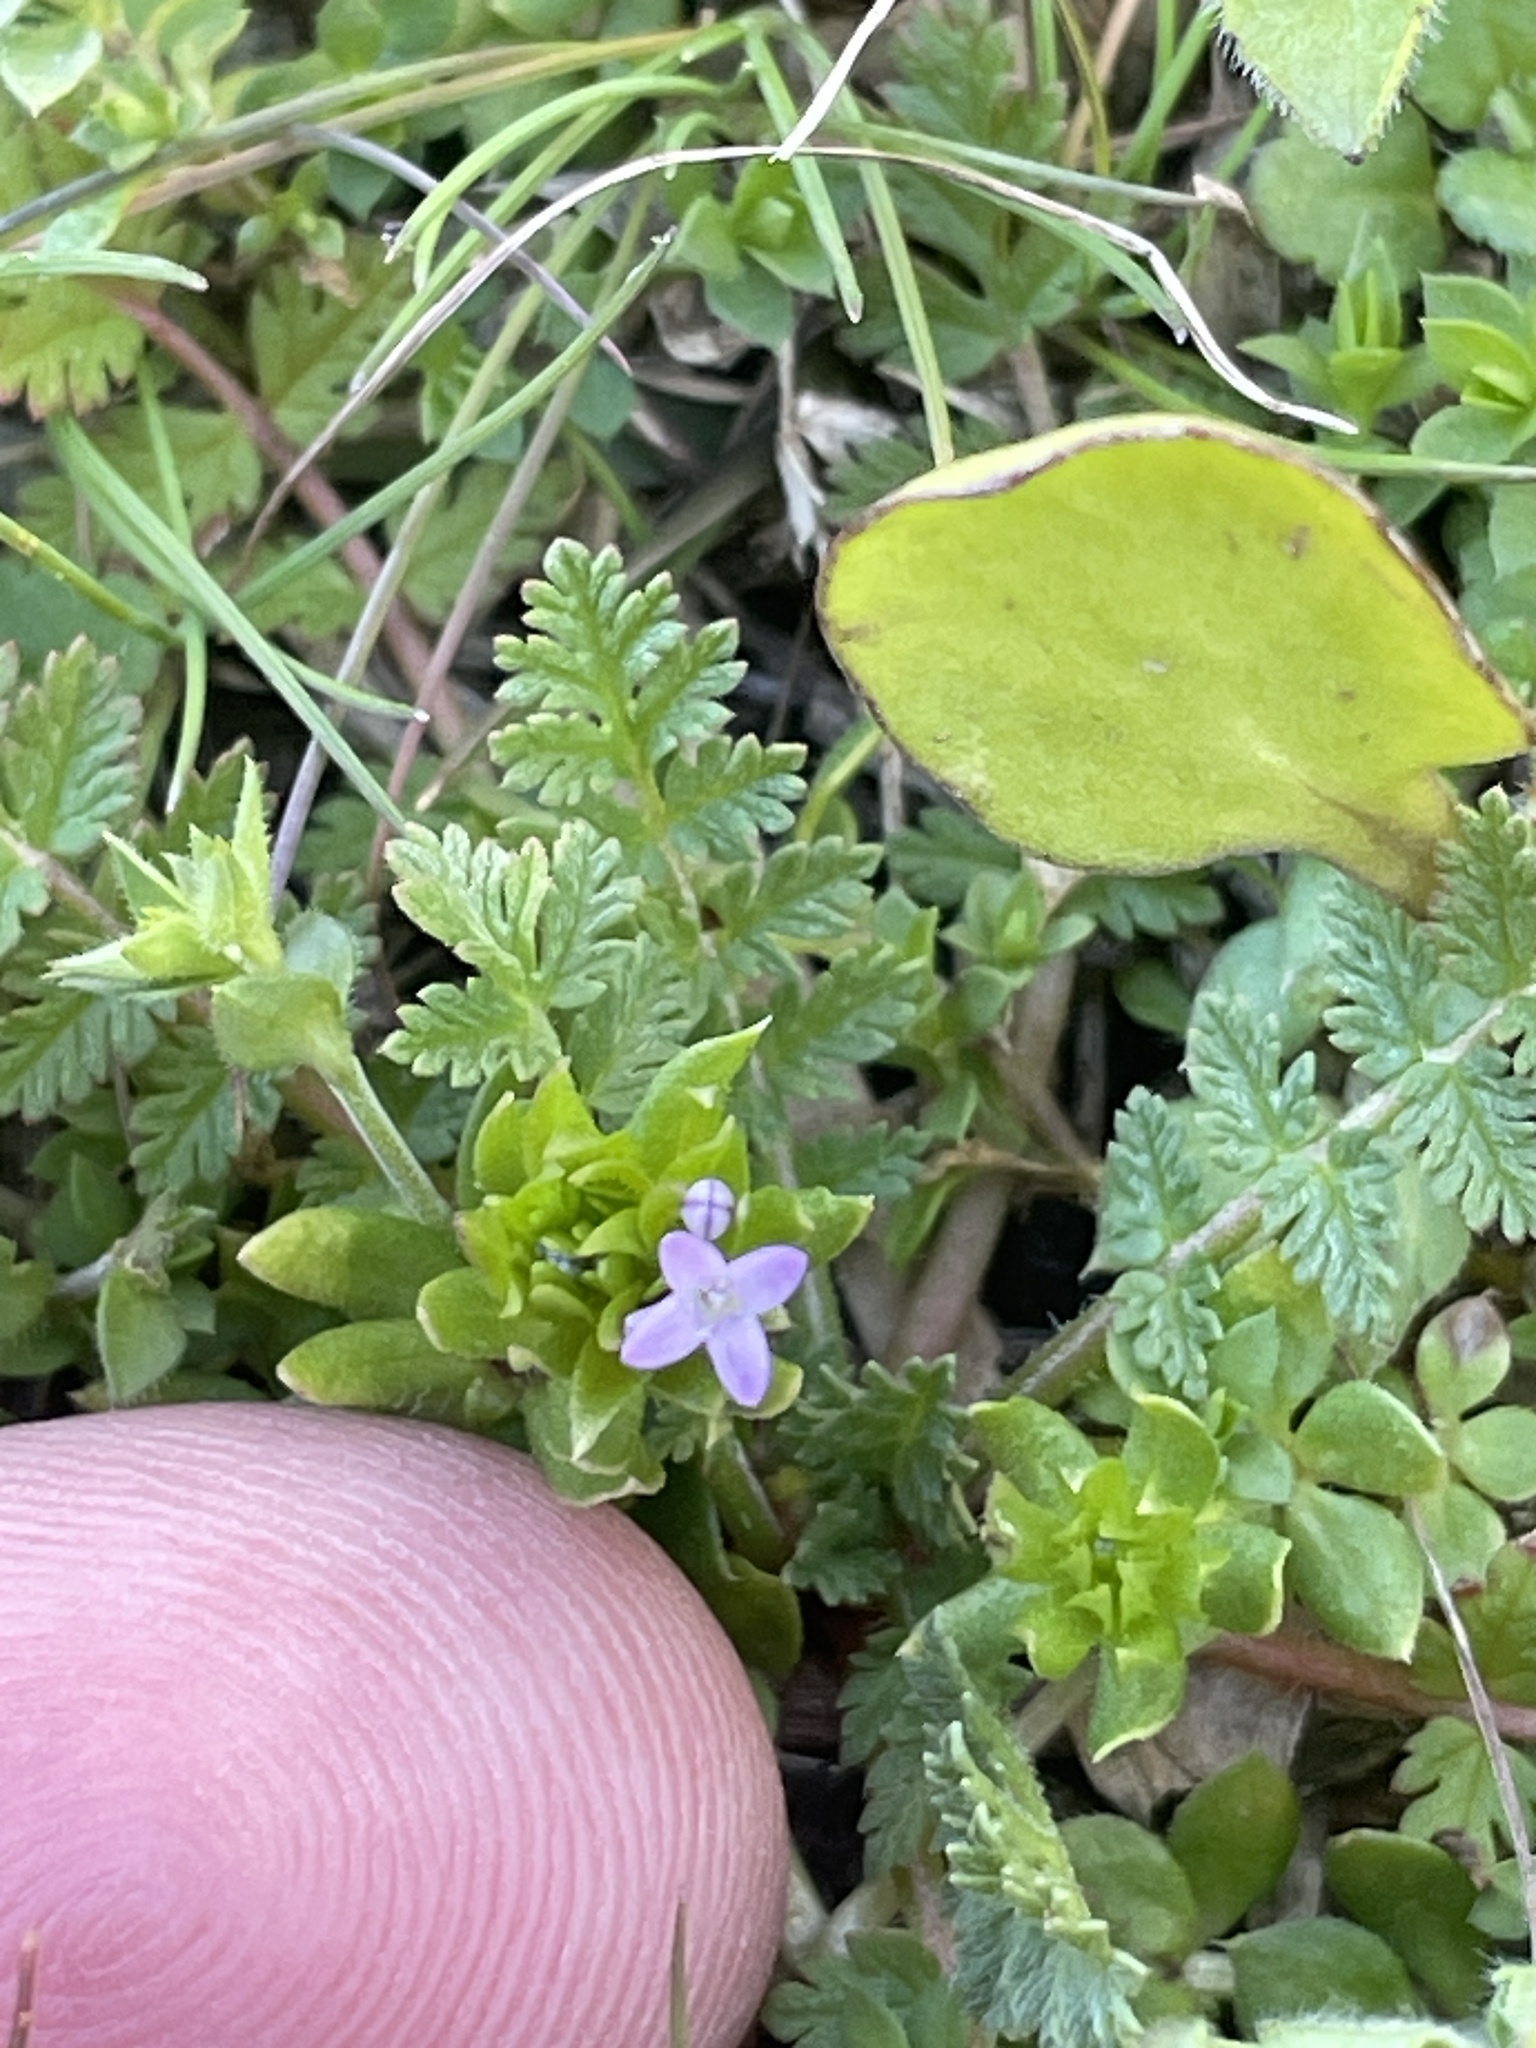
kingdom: Plantae
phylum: Tracheophyta
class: Magnoliopsida
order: Gentianales
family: Rubiaceae
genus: Sherardia
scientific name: Sherardia arvensis
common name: Field madder
